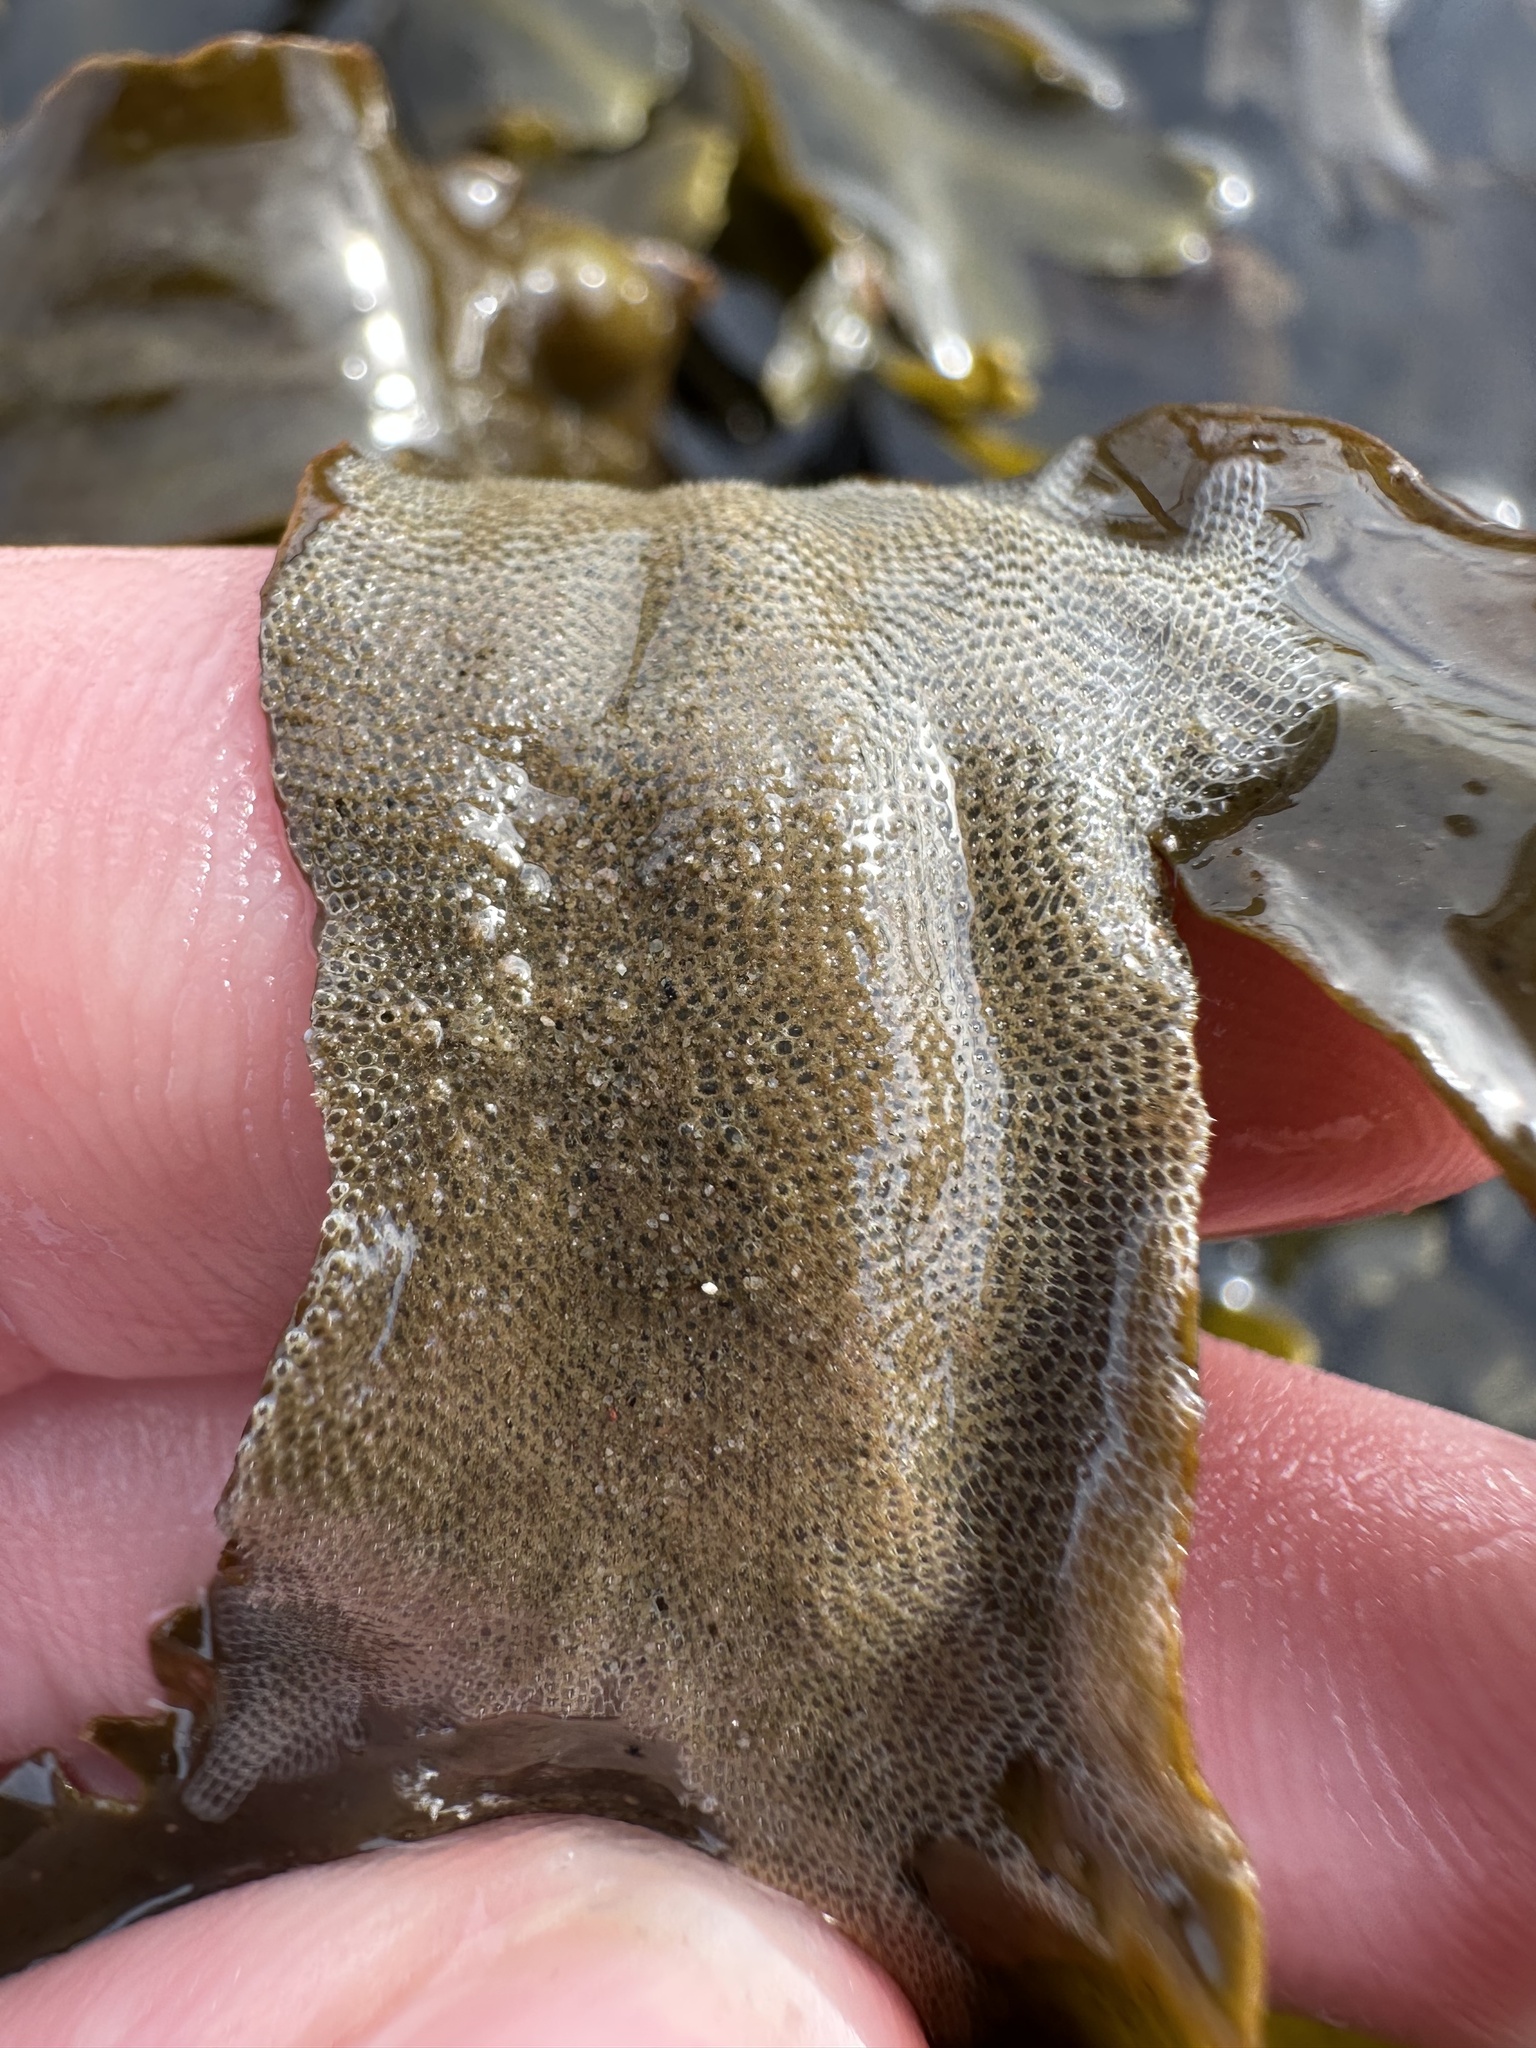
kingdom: Animalia
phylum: Bryozoa
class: Gymnolaemata
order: Cheilostomatida
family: Electridae
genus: Electra
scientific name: Electra pilosa
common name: Hairy sea-mat
